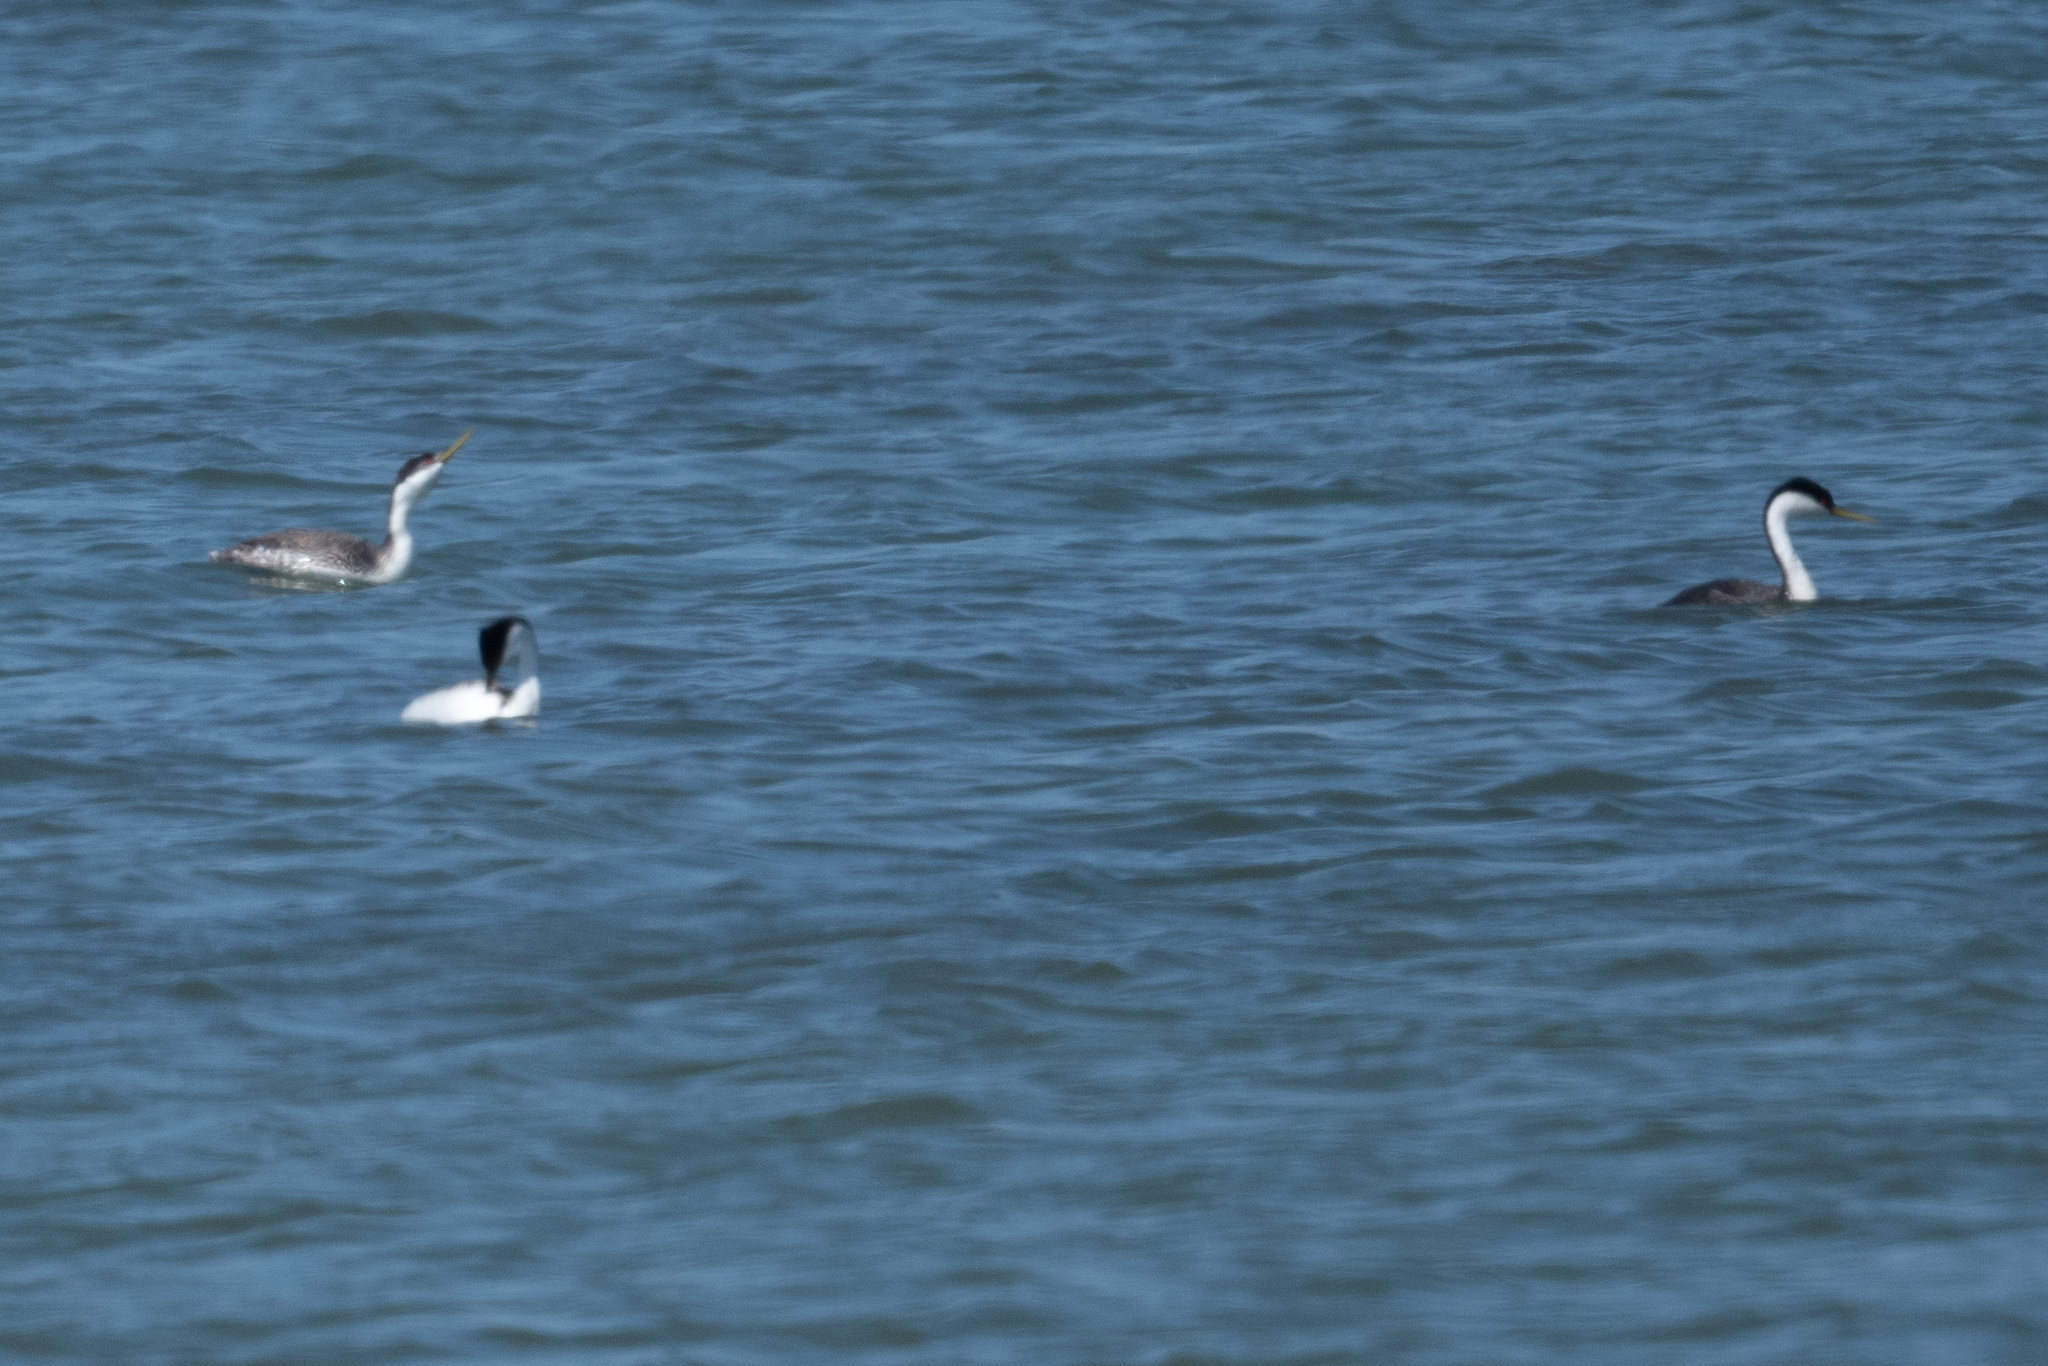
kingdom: Animalia
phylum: Chordata
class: Aves
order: Podicipediformes
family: Podicipedidae
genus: Aechmophorus
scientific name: Aechmophorus occidentalis
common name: Western grebe
